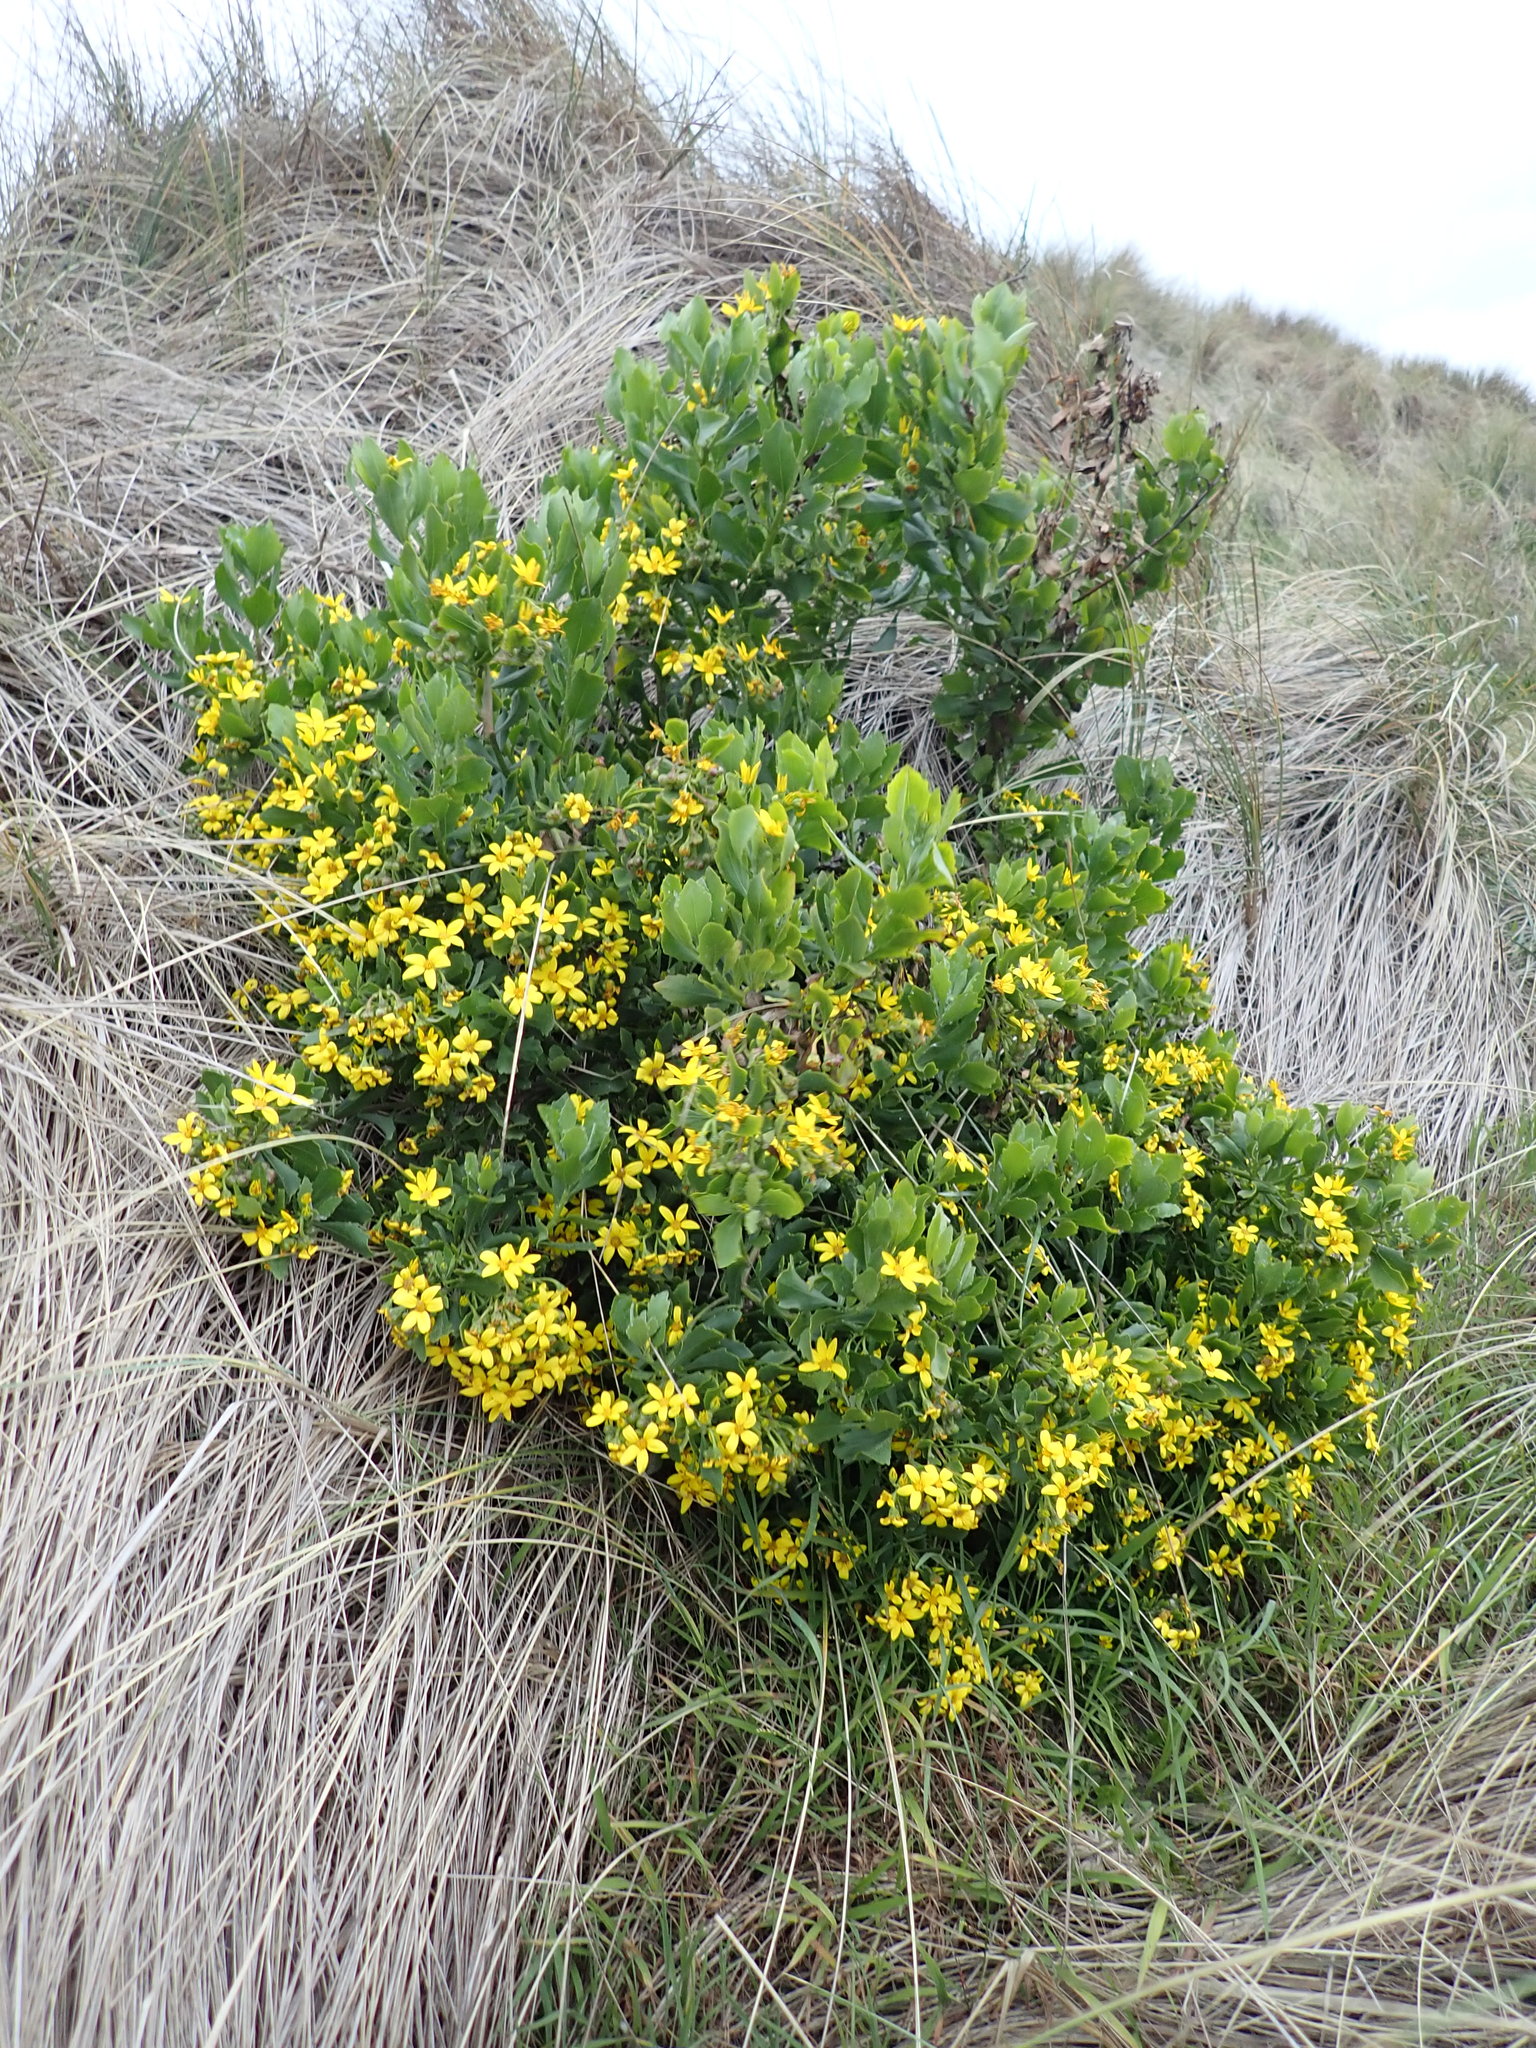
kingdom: Plantae
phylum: Tracheophyta
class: Magnoliopsida
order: Asterales
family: Asteraceae
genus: Osteospermum
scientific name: Osteospermum moniliferum
